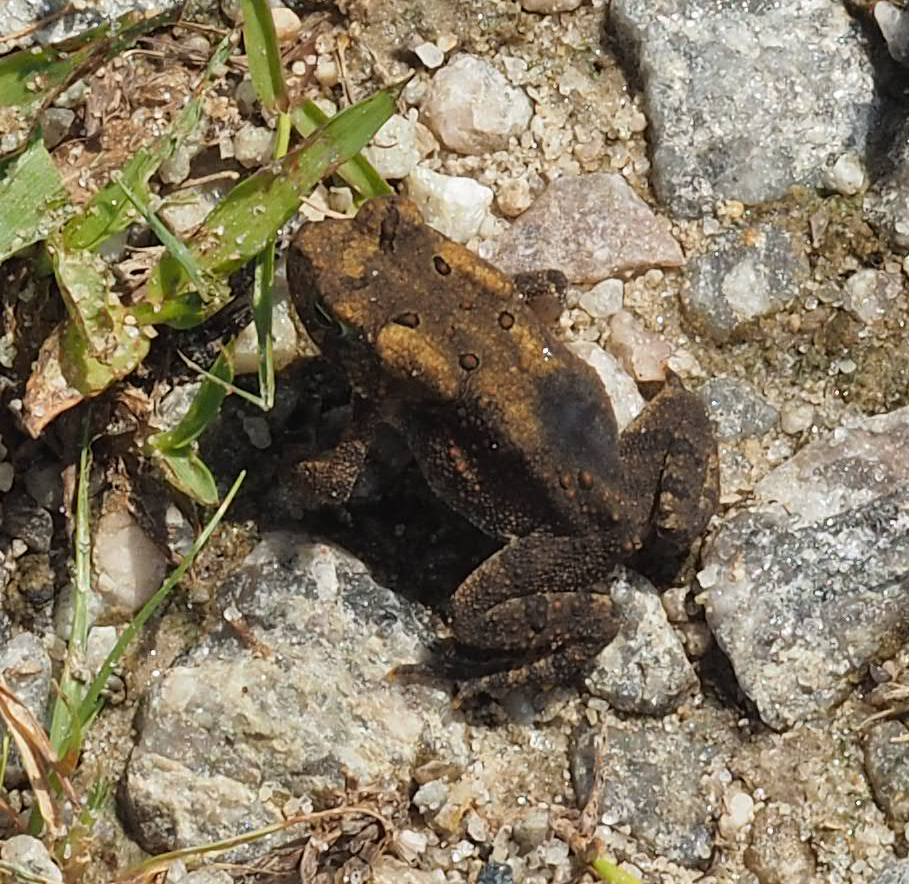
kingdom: Animalia
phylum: Chordata
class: Amphibia
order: Anura
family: Bufonidae
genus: Anaxyrus
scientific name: Anaxyrus americanus
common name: American toad
